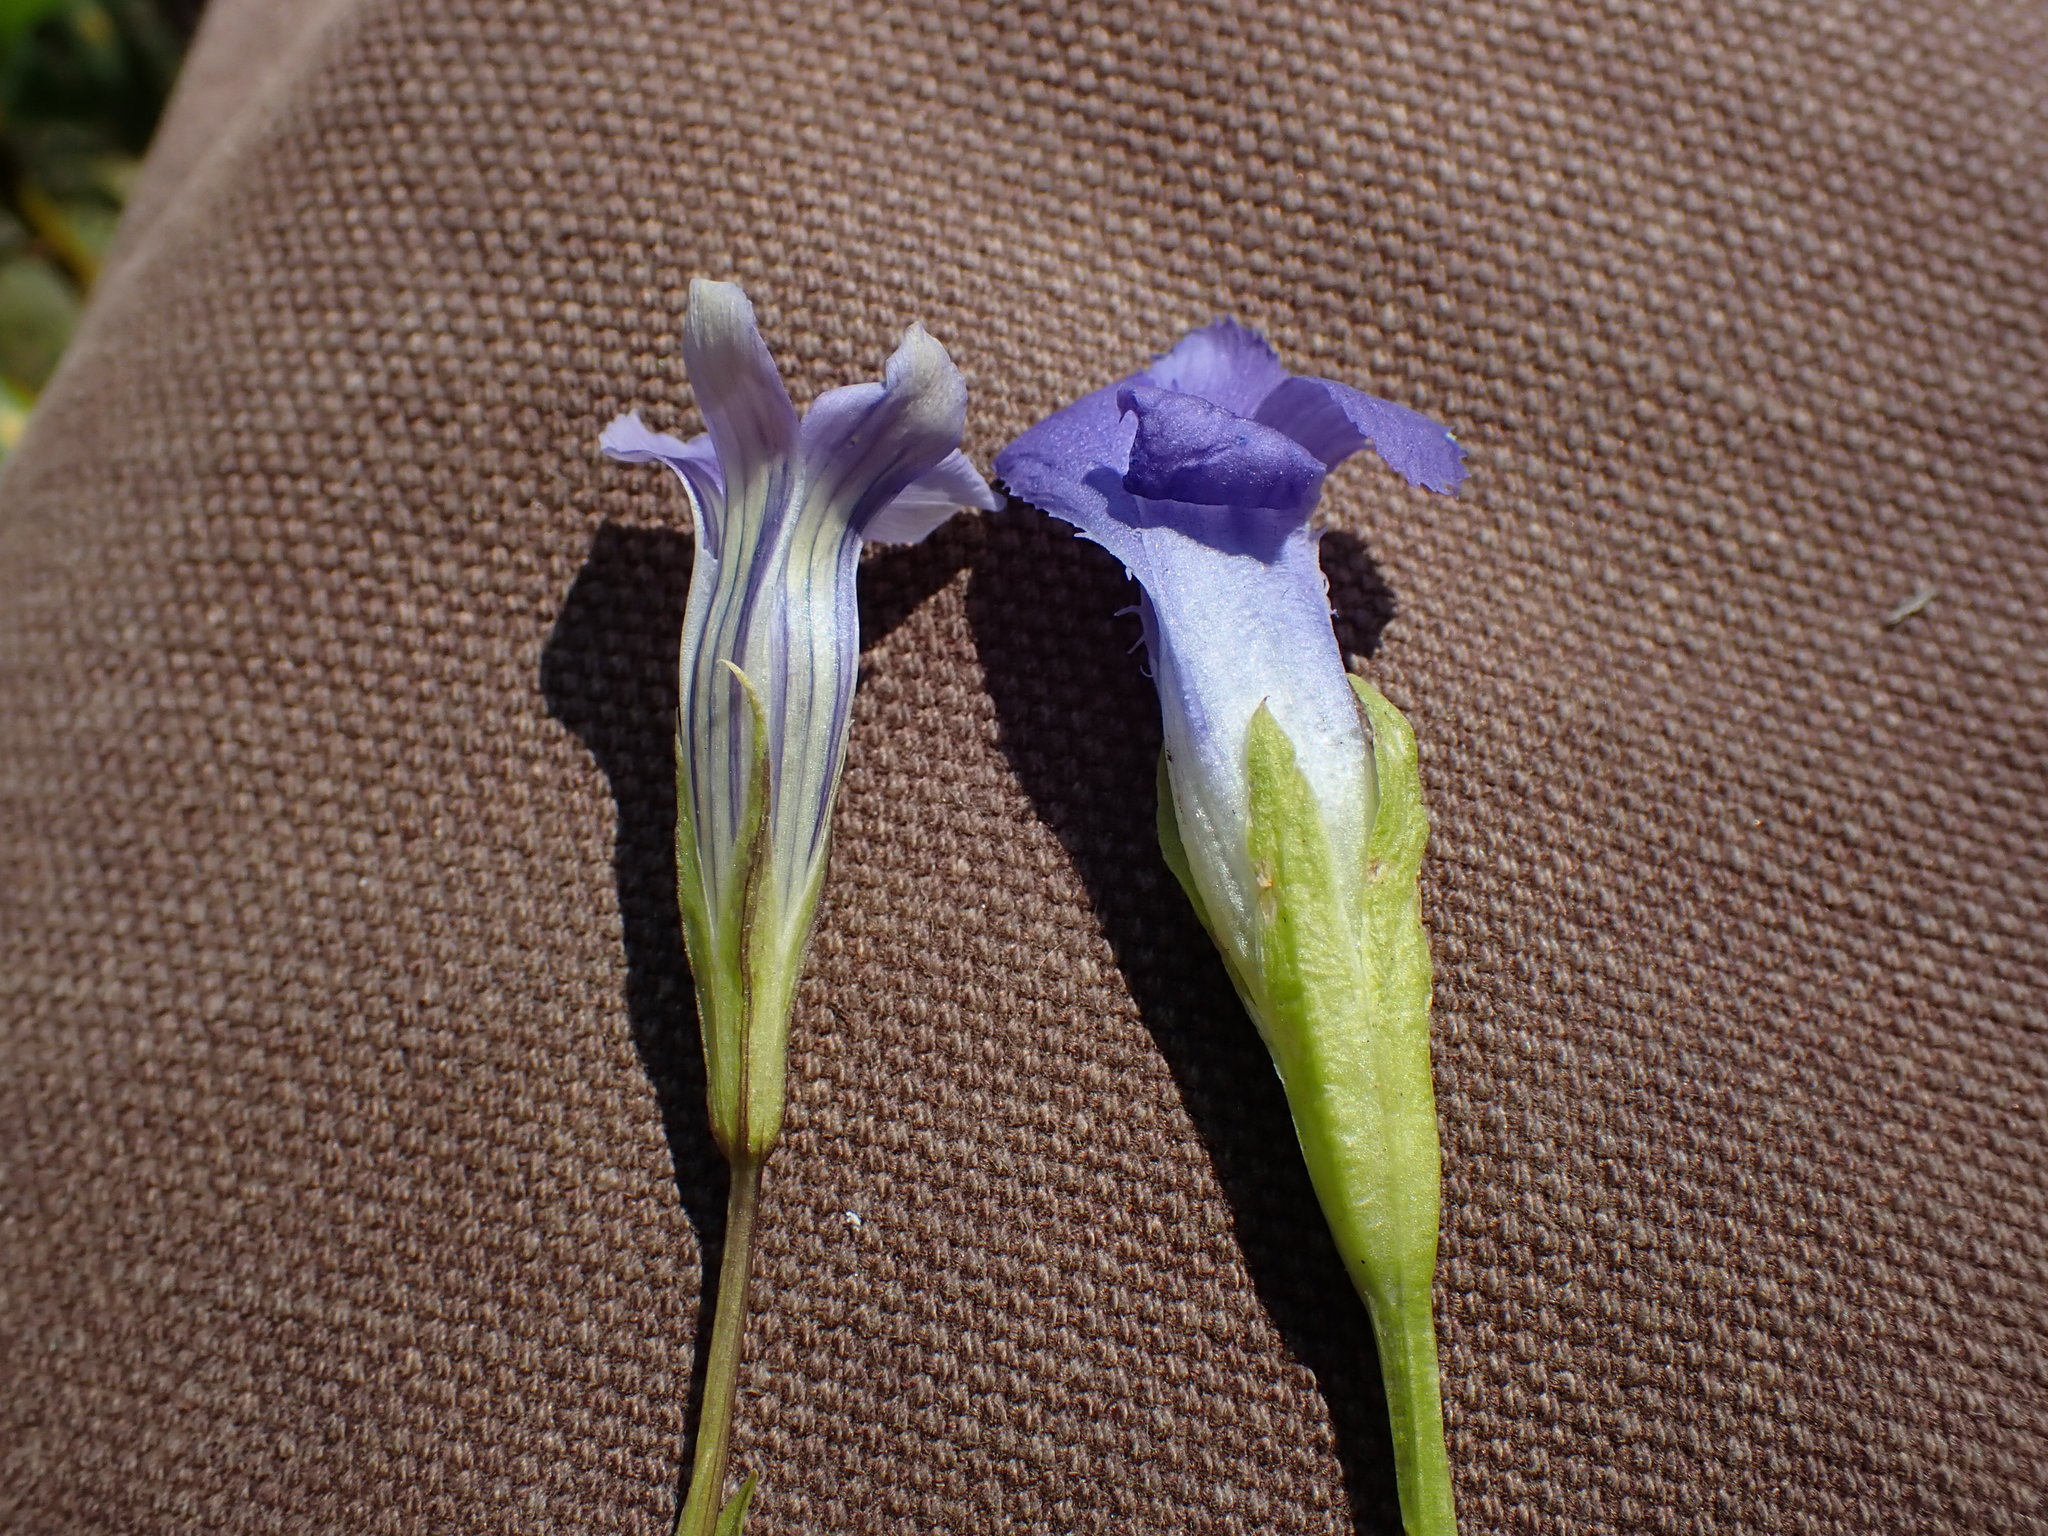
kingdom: Plantae
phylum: Tracheophyta
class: Magnoliopsida
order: Gentianales
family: Gentianaceae
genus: Gentianopsis
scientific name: Gentianopsis simplex
